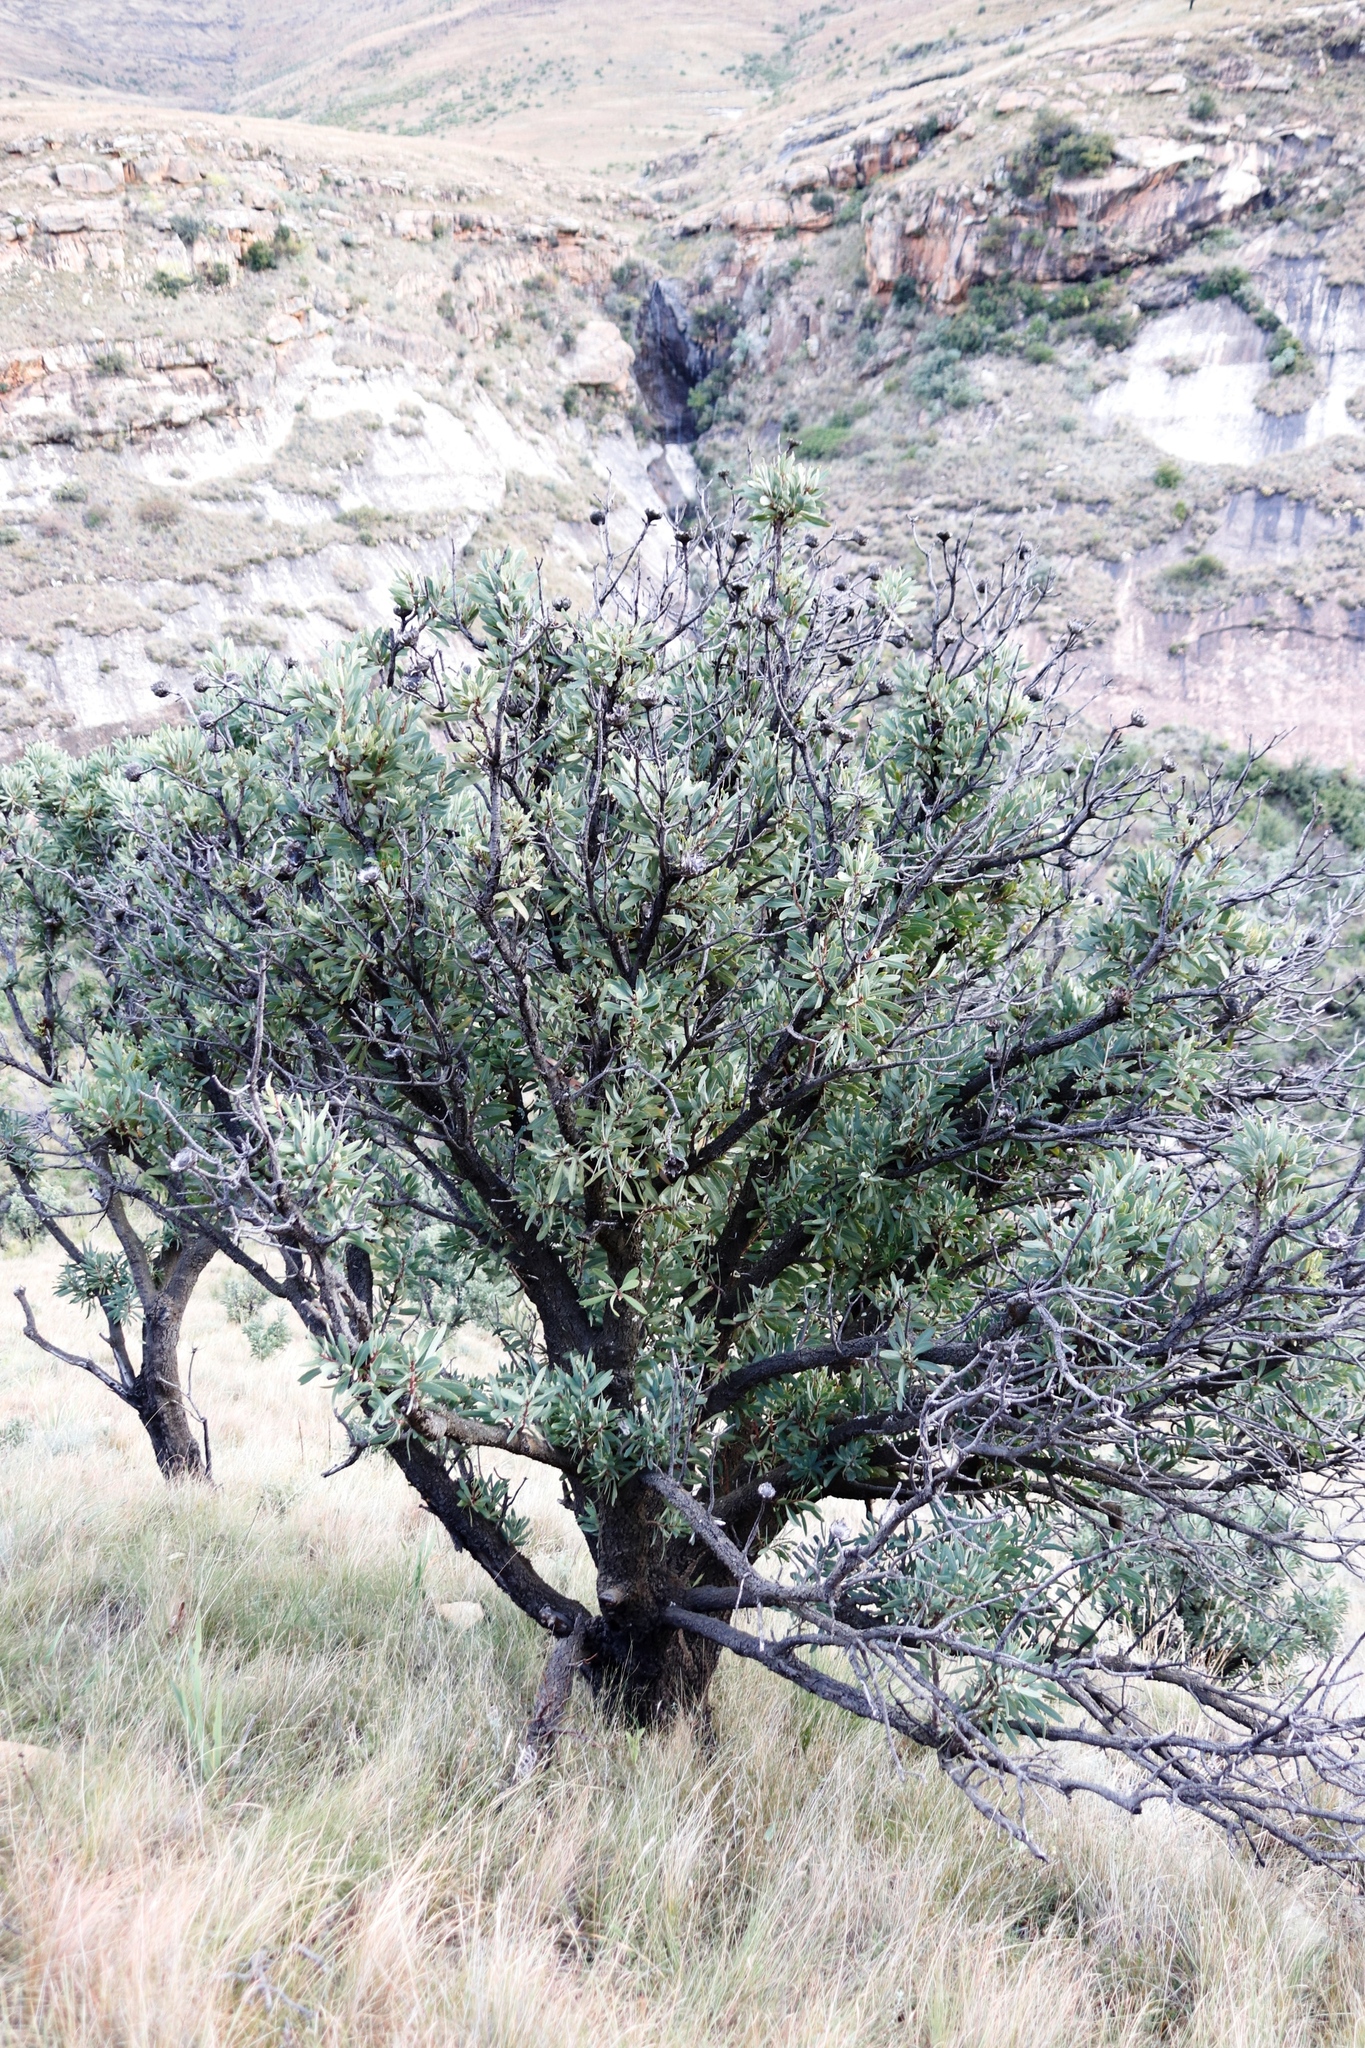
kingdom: Plantae
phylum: Tracheophyta
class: Magnoliopsida
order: Proteales
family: Proteaceae
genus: Protea
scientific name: Protea caffra
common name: Common sugarbush
